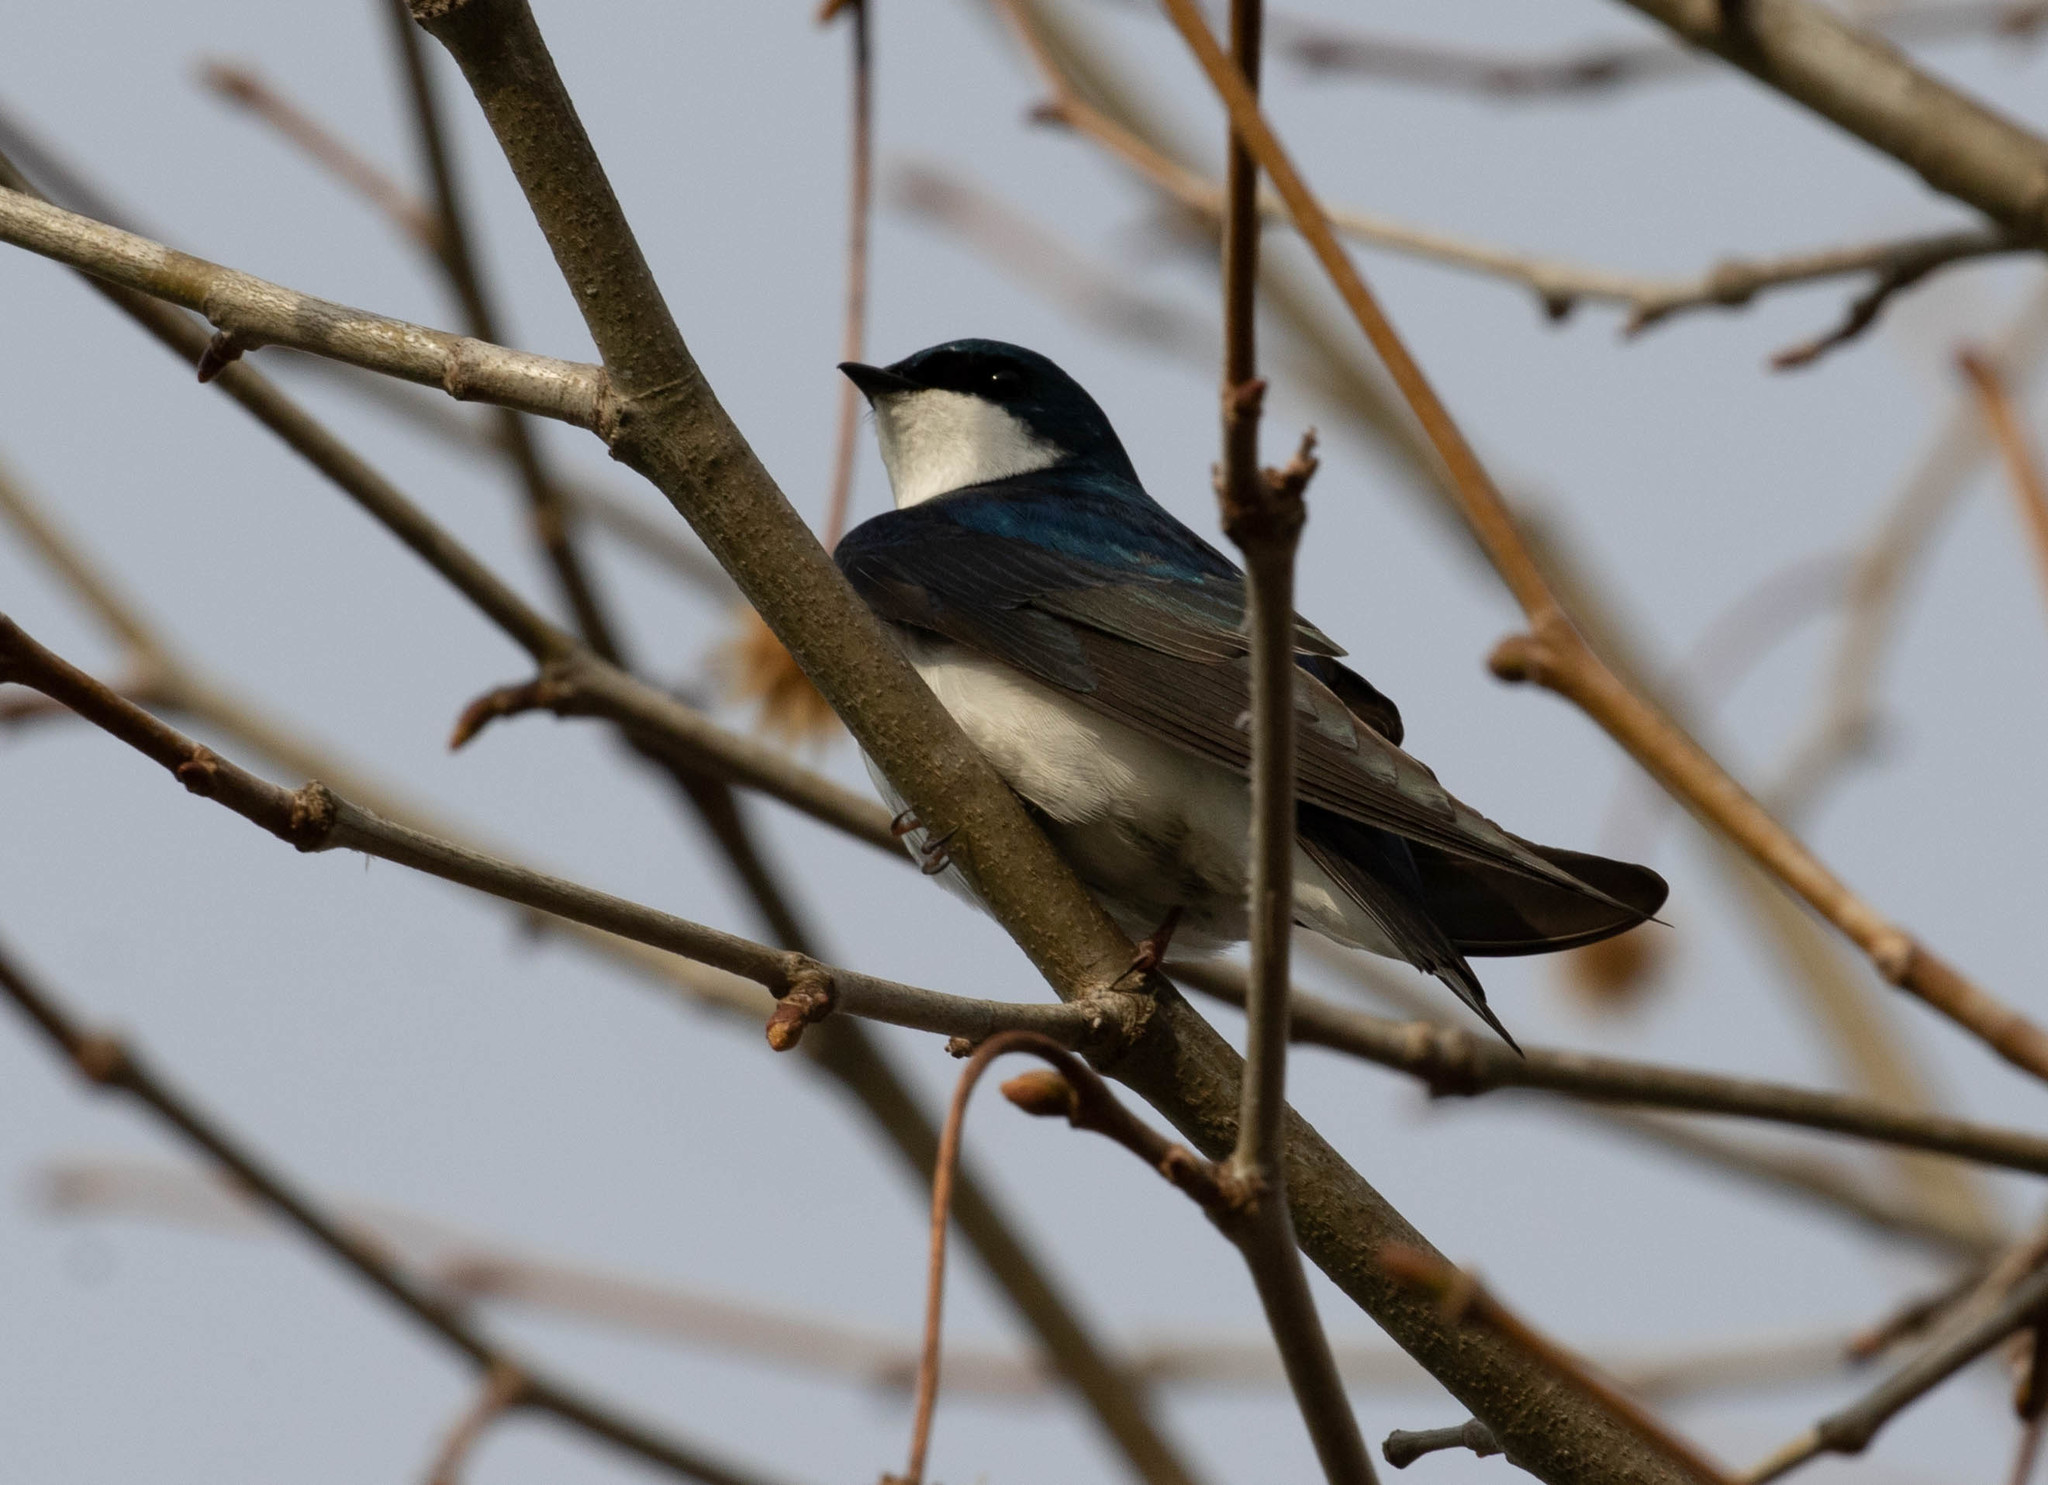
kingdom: Animalia
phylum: Chordata
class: Aves
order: Passeriformes
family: Hirundinidae
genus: Tachycineta
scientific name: Tachycineta bicolor
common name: Tree swallow
